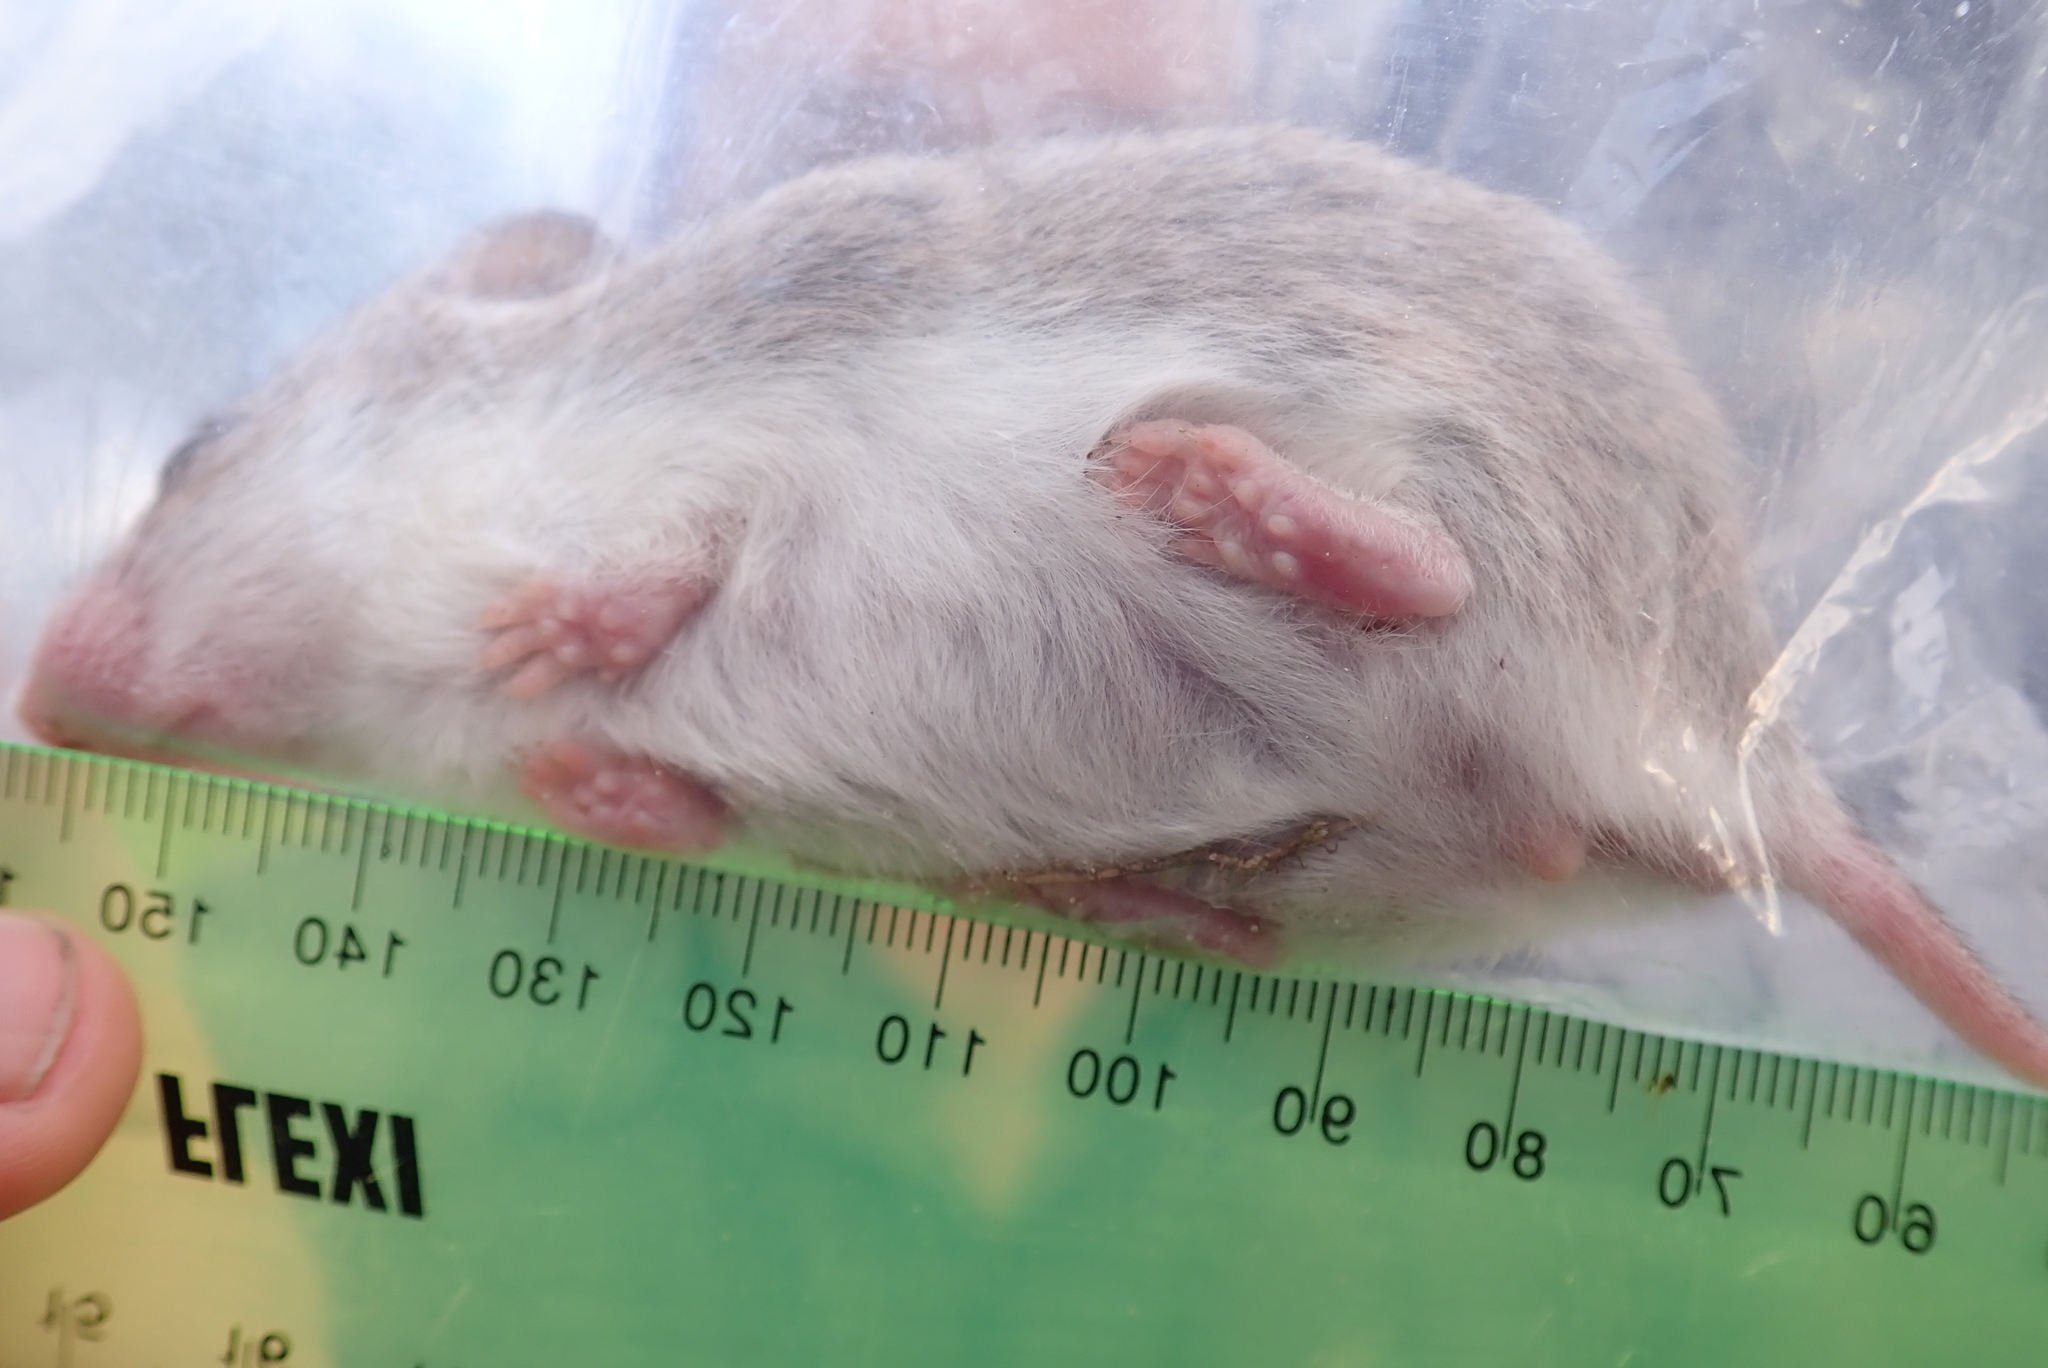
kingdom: Animalia
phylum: Chordata
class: Mammalia
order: Rodentia
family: Nesomyidae
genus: Saccostomus
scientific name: Saccostomus campestris
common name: Southern african pouched mouse
